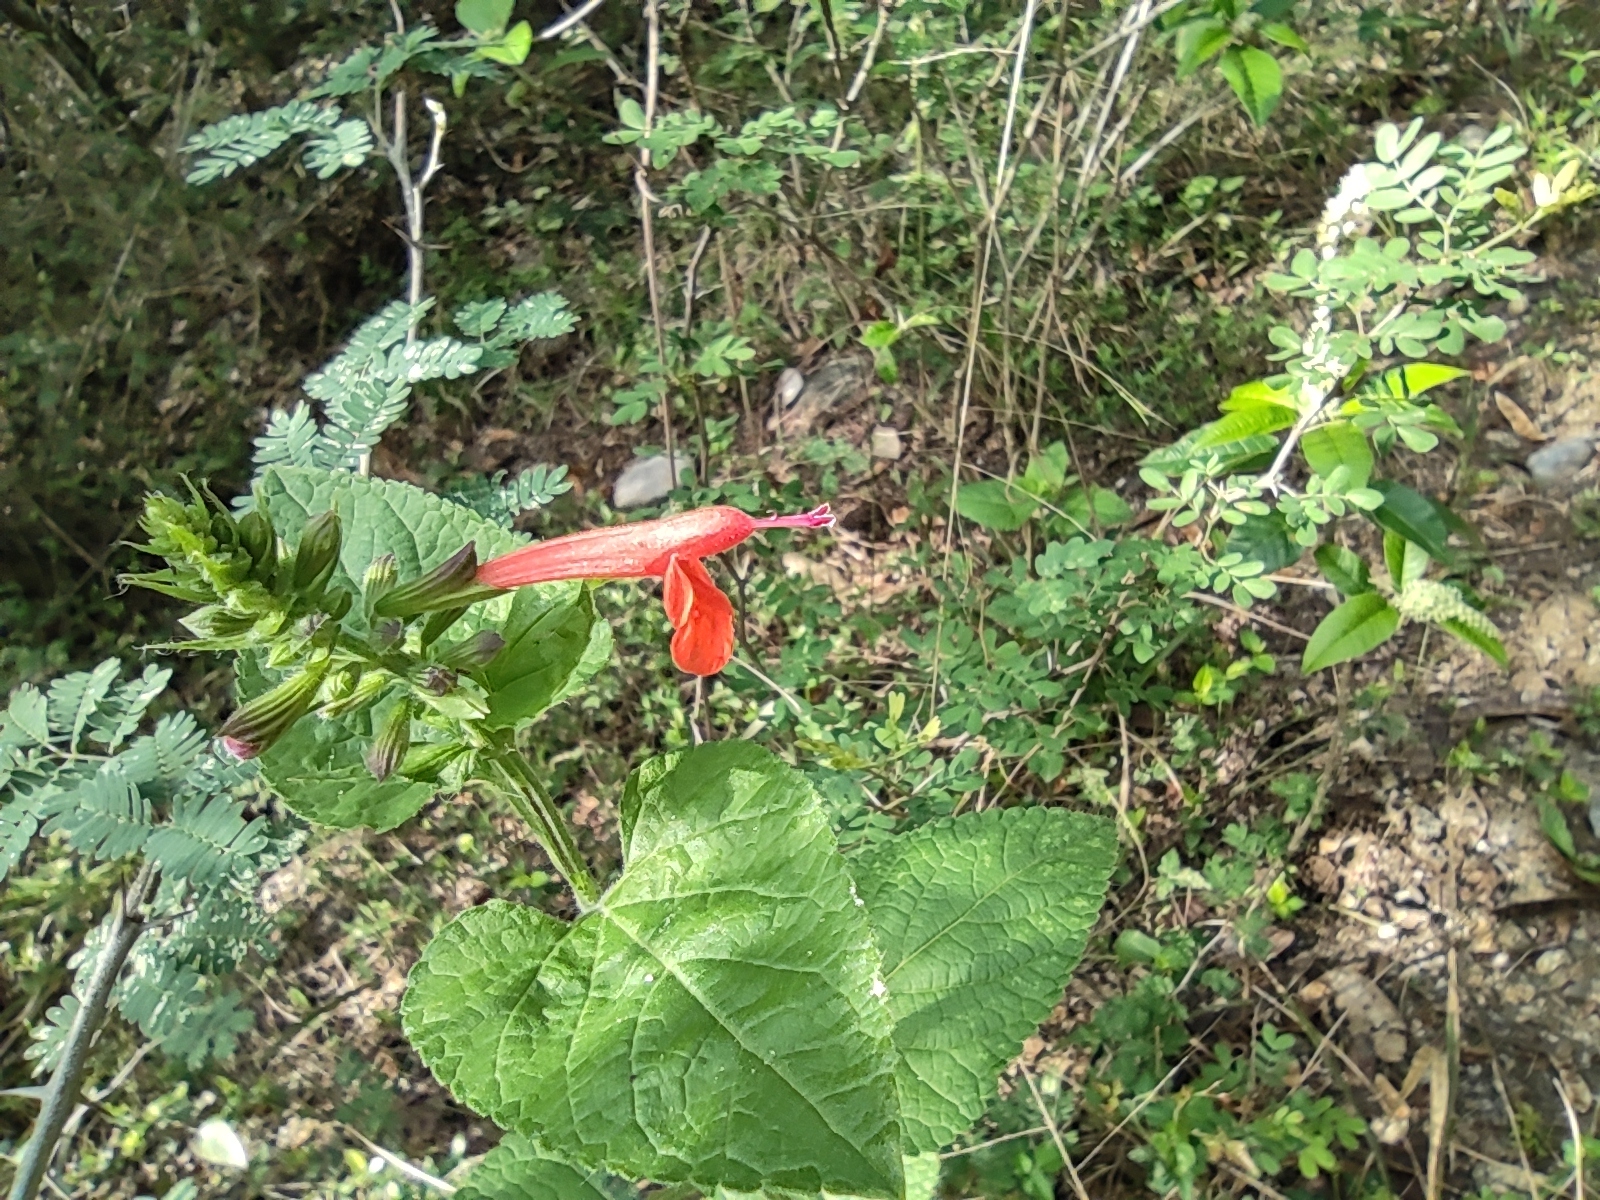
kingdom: Plantae
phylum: Tracheophyta
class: Magnoliopsida
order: Lamiales
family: Lamiaceae
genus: Salvia
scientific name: Salvia coccinea
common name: Blood sage
